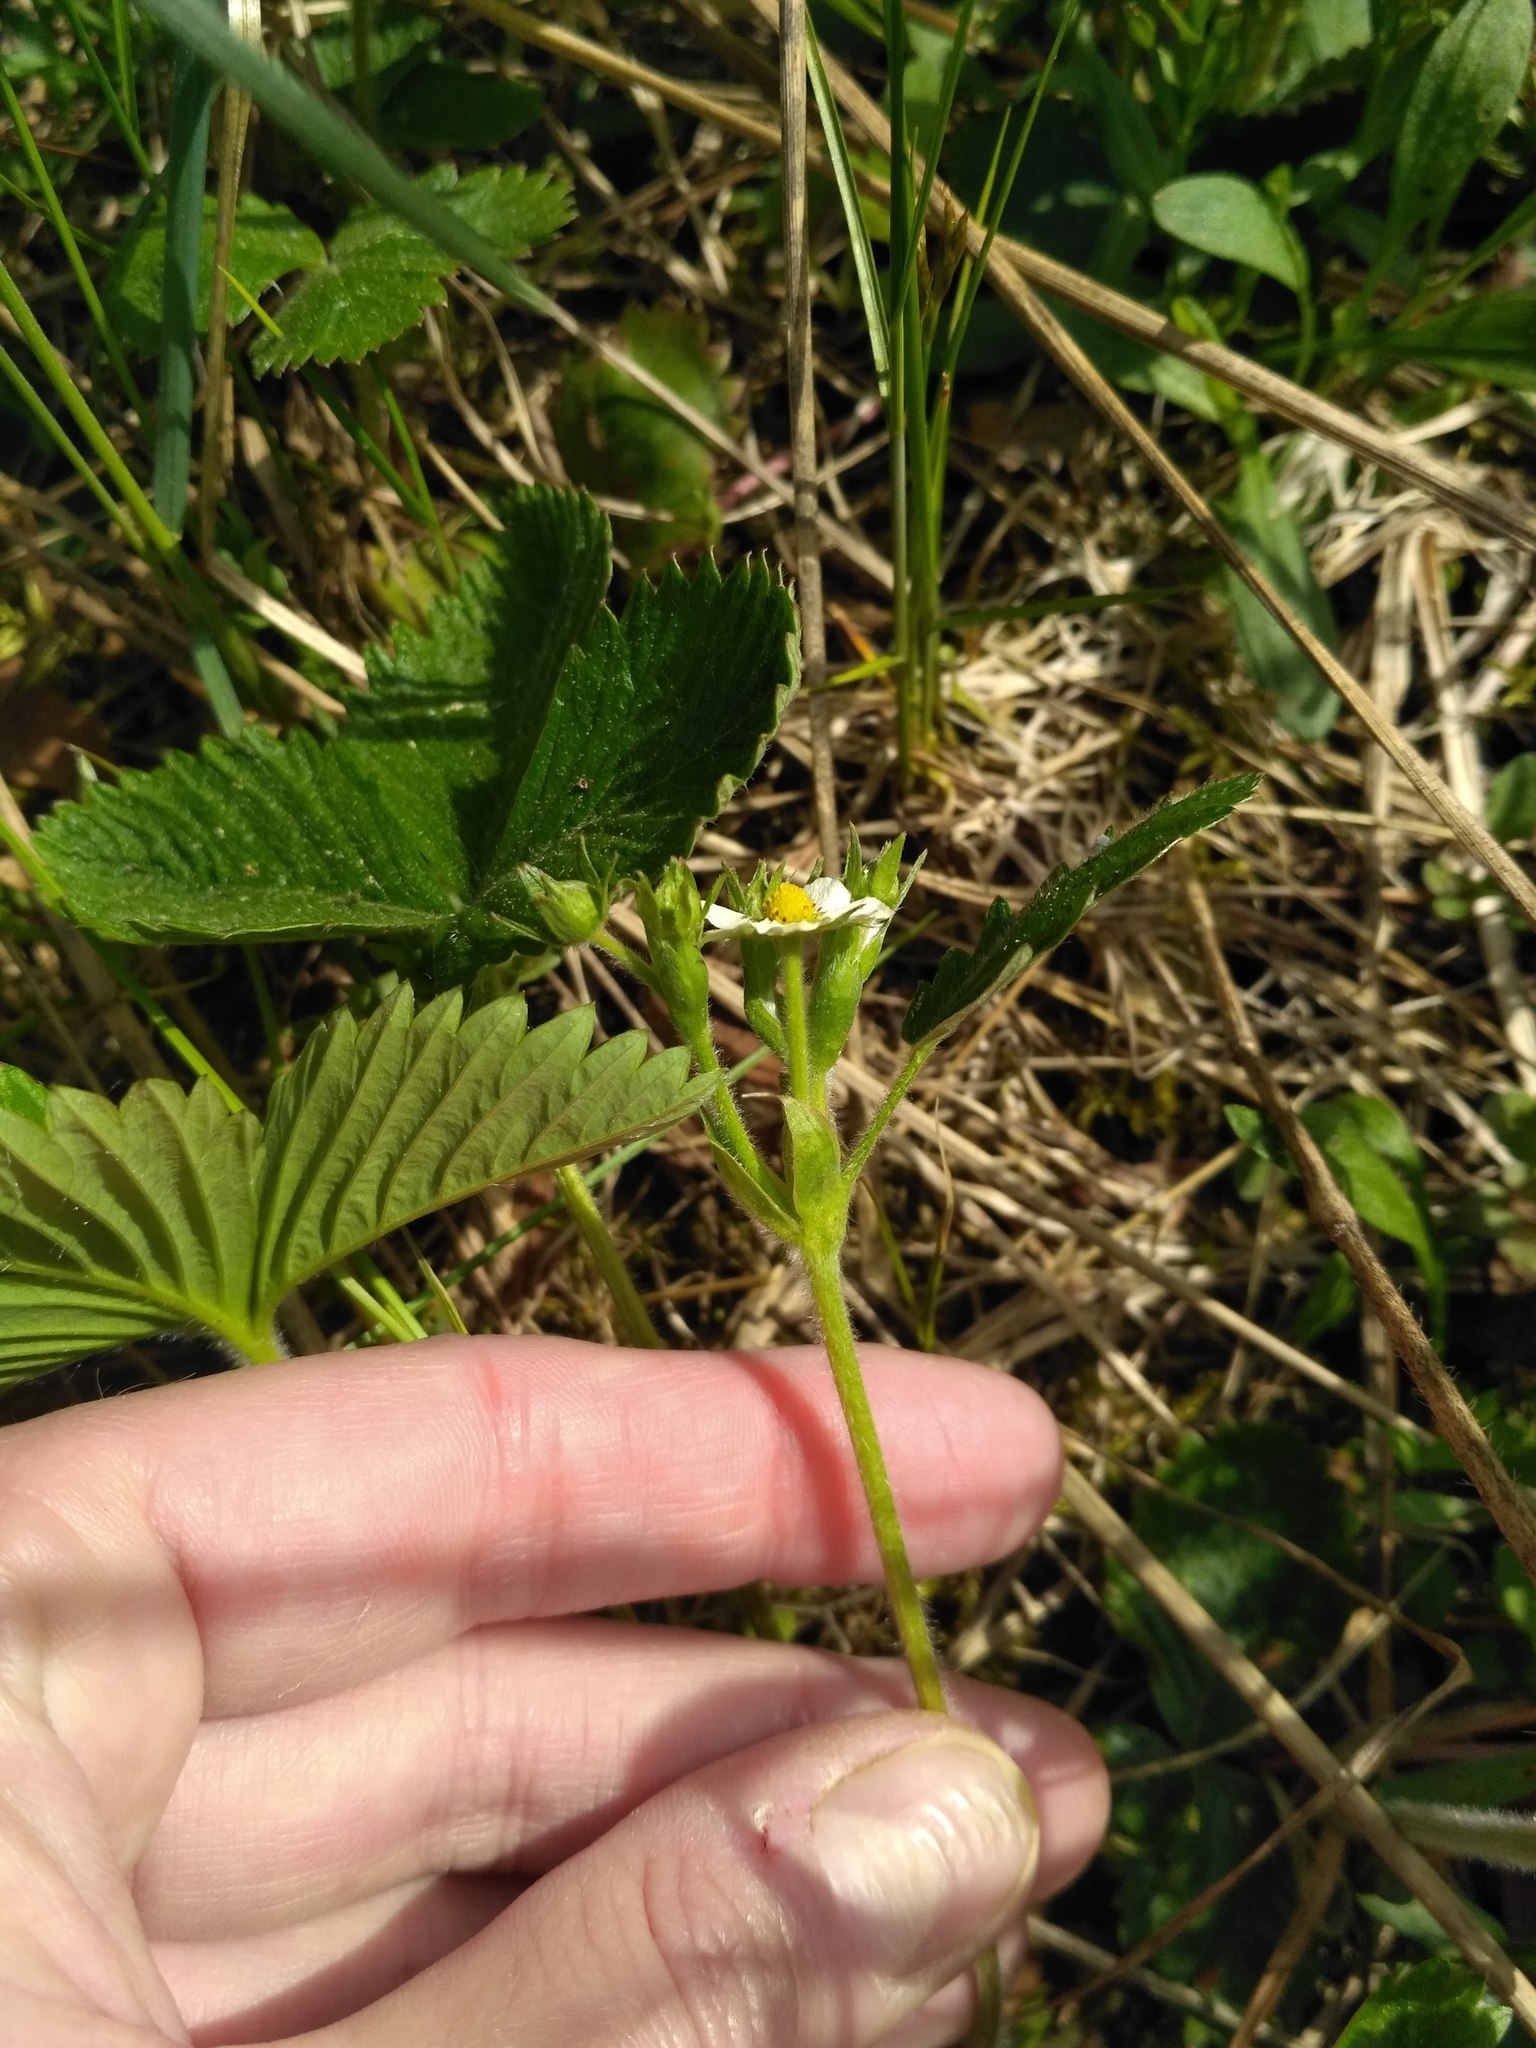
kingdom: Plantae
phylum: Tracheophyta
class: Magnoliopsida
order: Rosales
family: Rosaceae
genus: Fragaria
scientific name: Fragaria vesca
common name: Wild strawberry
